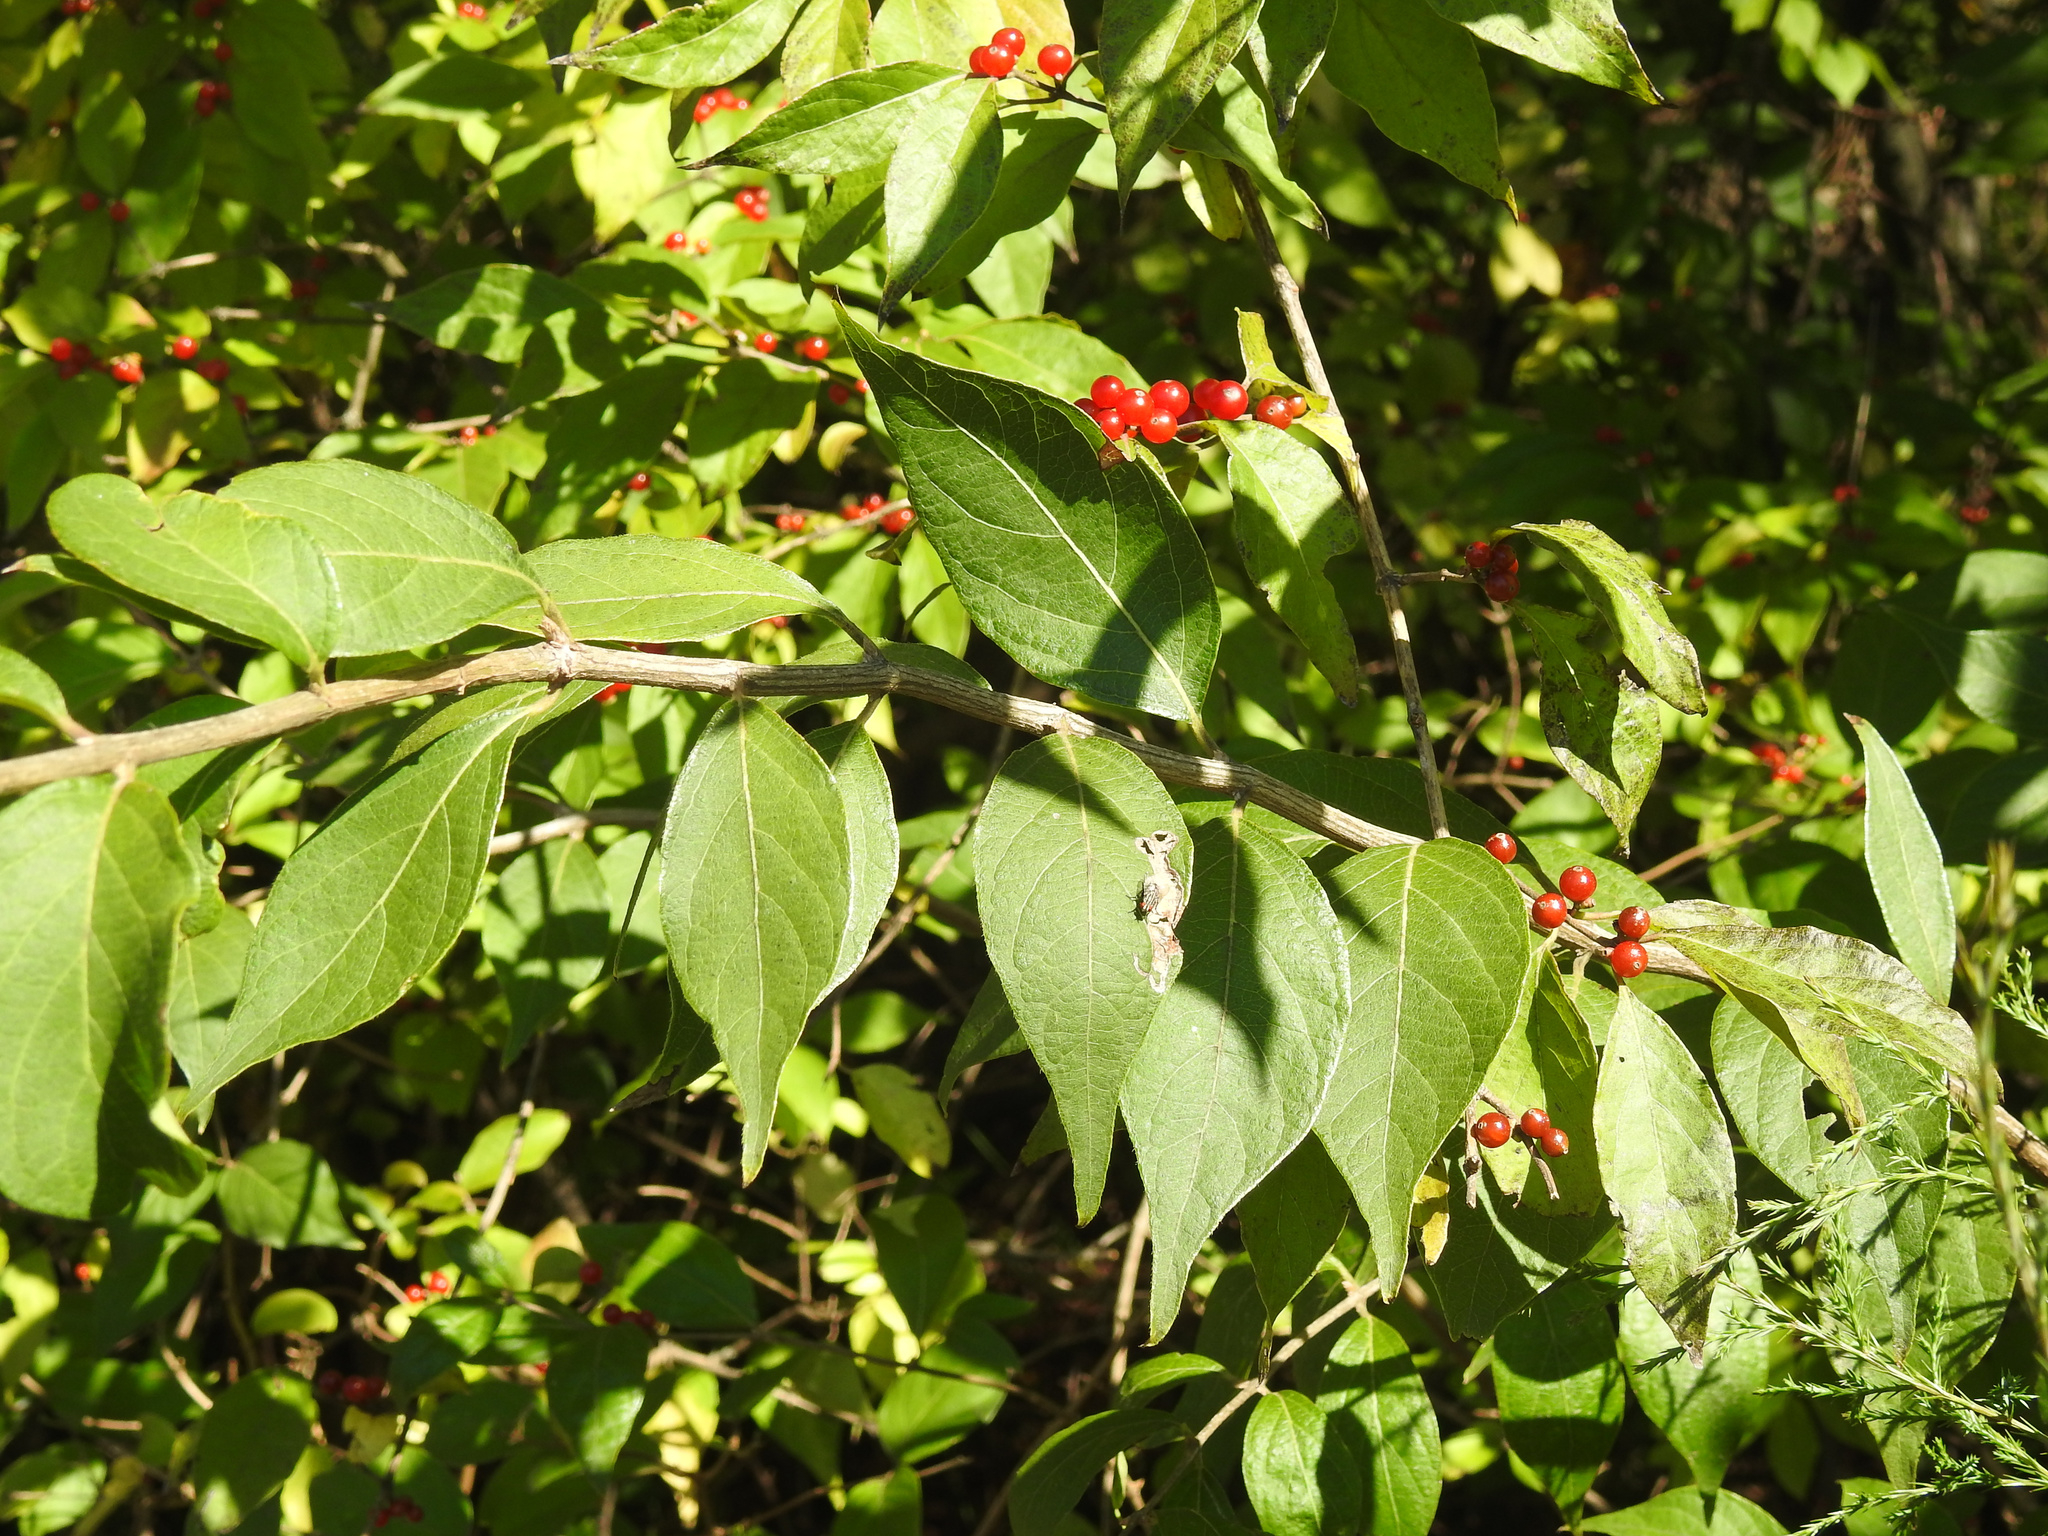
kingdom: Plantae
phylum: Tracheophyta
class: Magnoliopsida
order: Dipsacales
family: Caprifoliaceae
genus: Lonicera
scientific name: Lonicera maackii
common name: Amur honeysuckle
